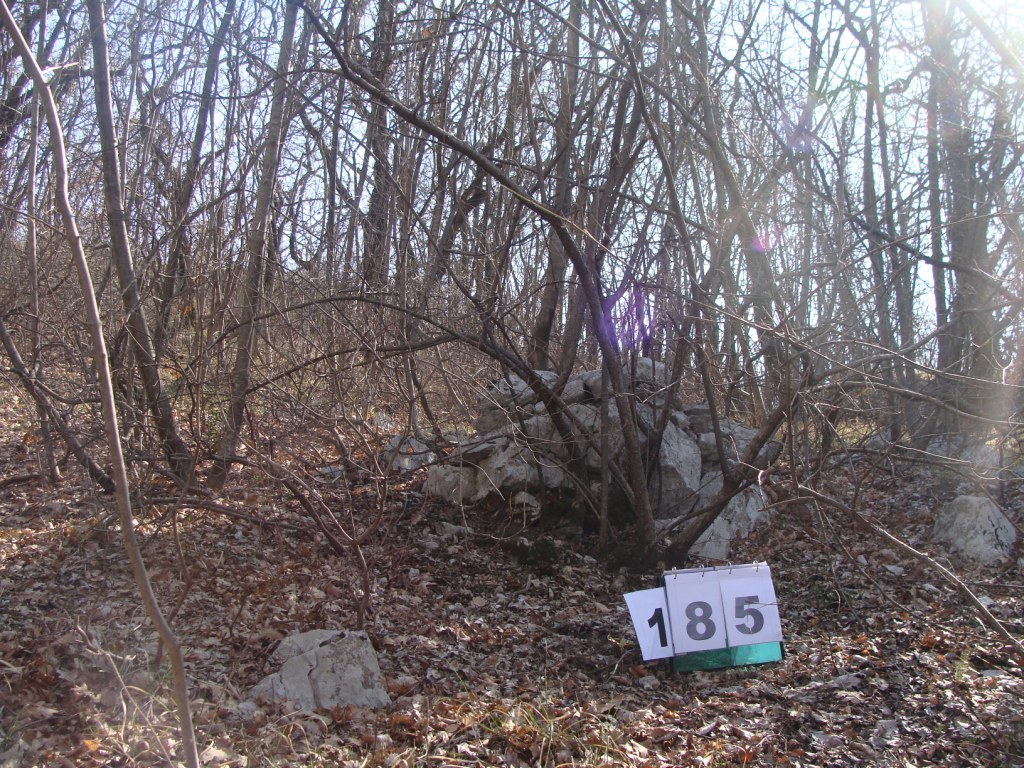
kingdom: Plantae
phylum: Tracheophyta
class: Magnoliopsida
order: Cornales
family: Cornaceae
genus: Cornus
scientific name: Cornus mas
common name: Cornelian-cherry
